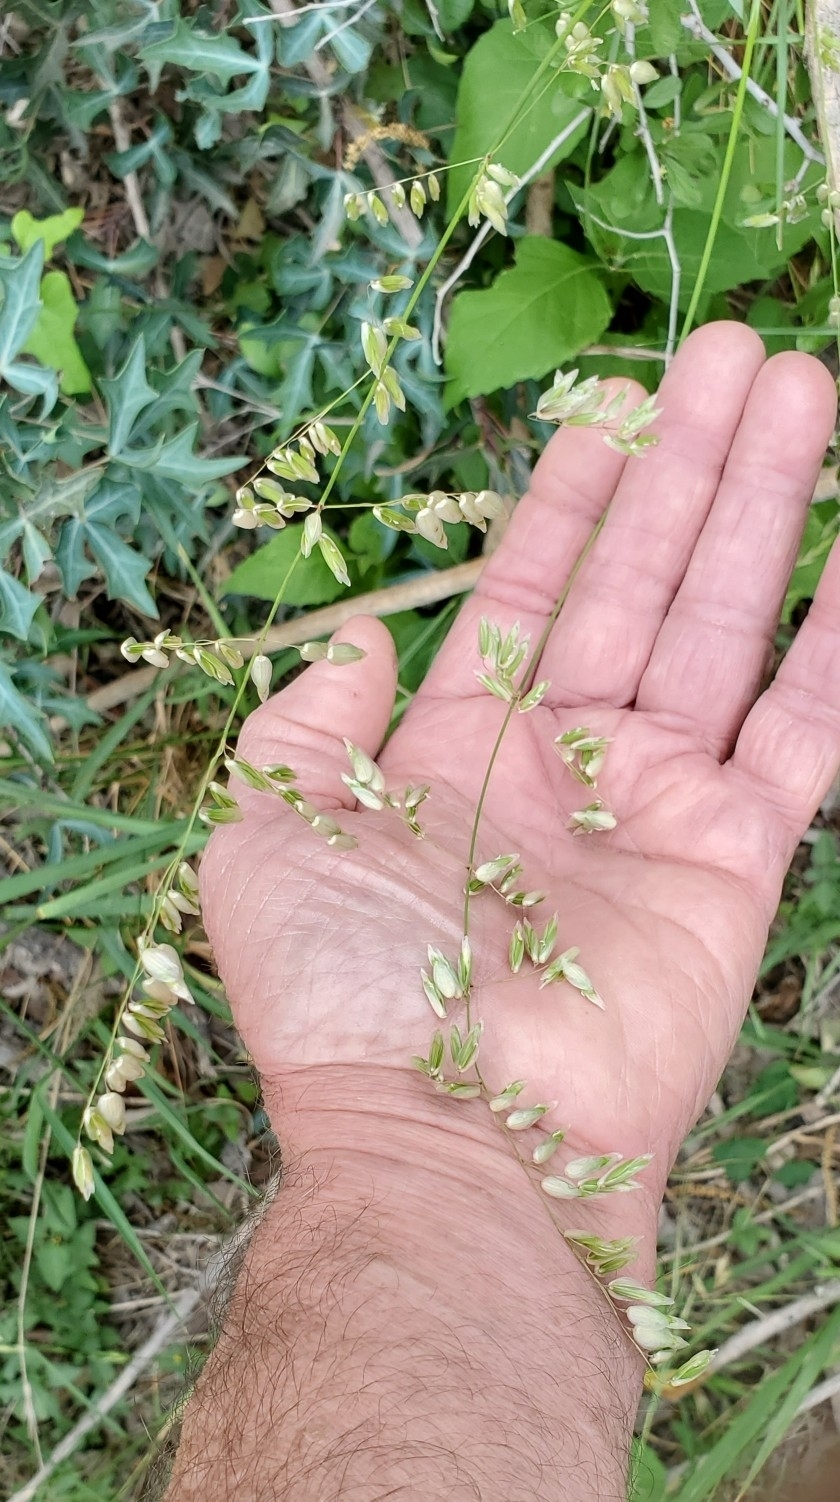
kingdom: Plantae
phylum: Tracheophyta
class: Liliopsida
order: Poales
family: Poaceae
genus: Melica
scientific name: Melica nitens
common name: Three-flower melic
